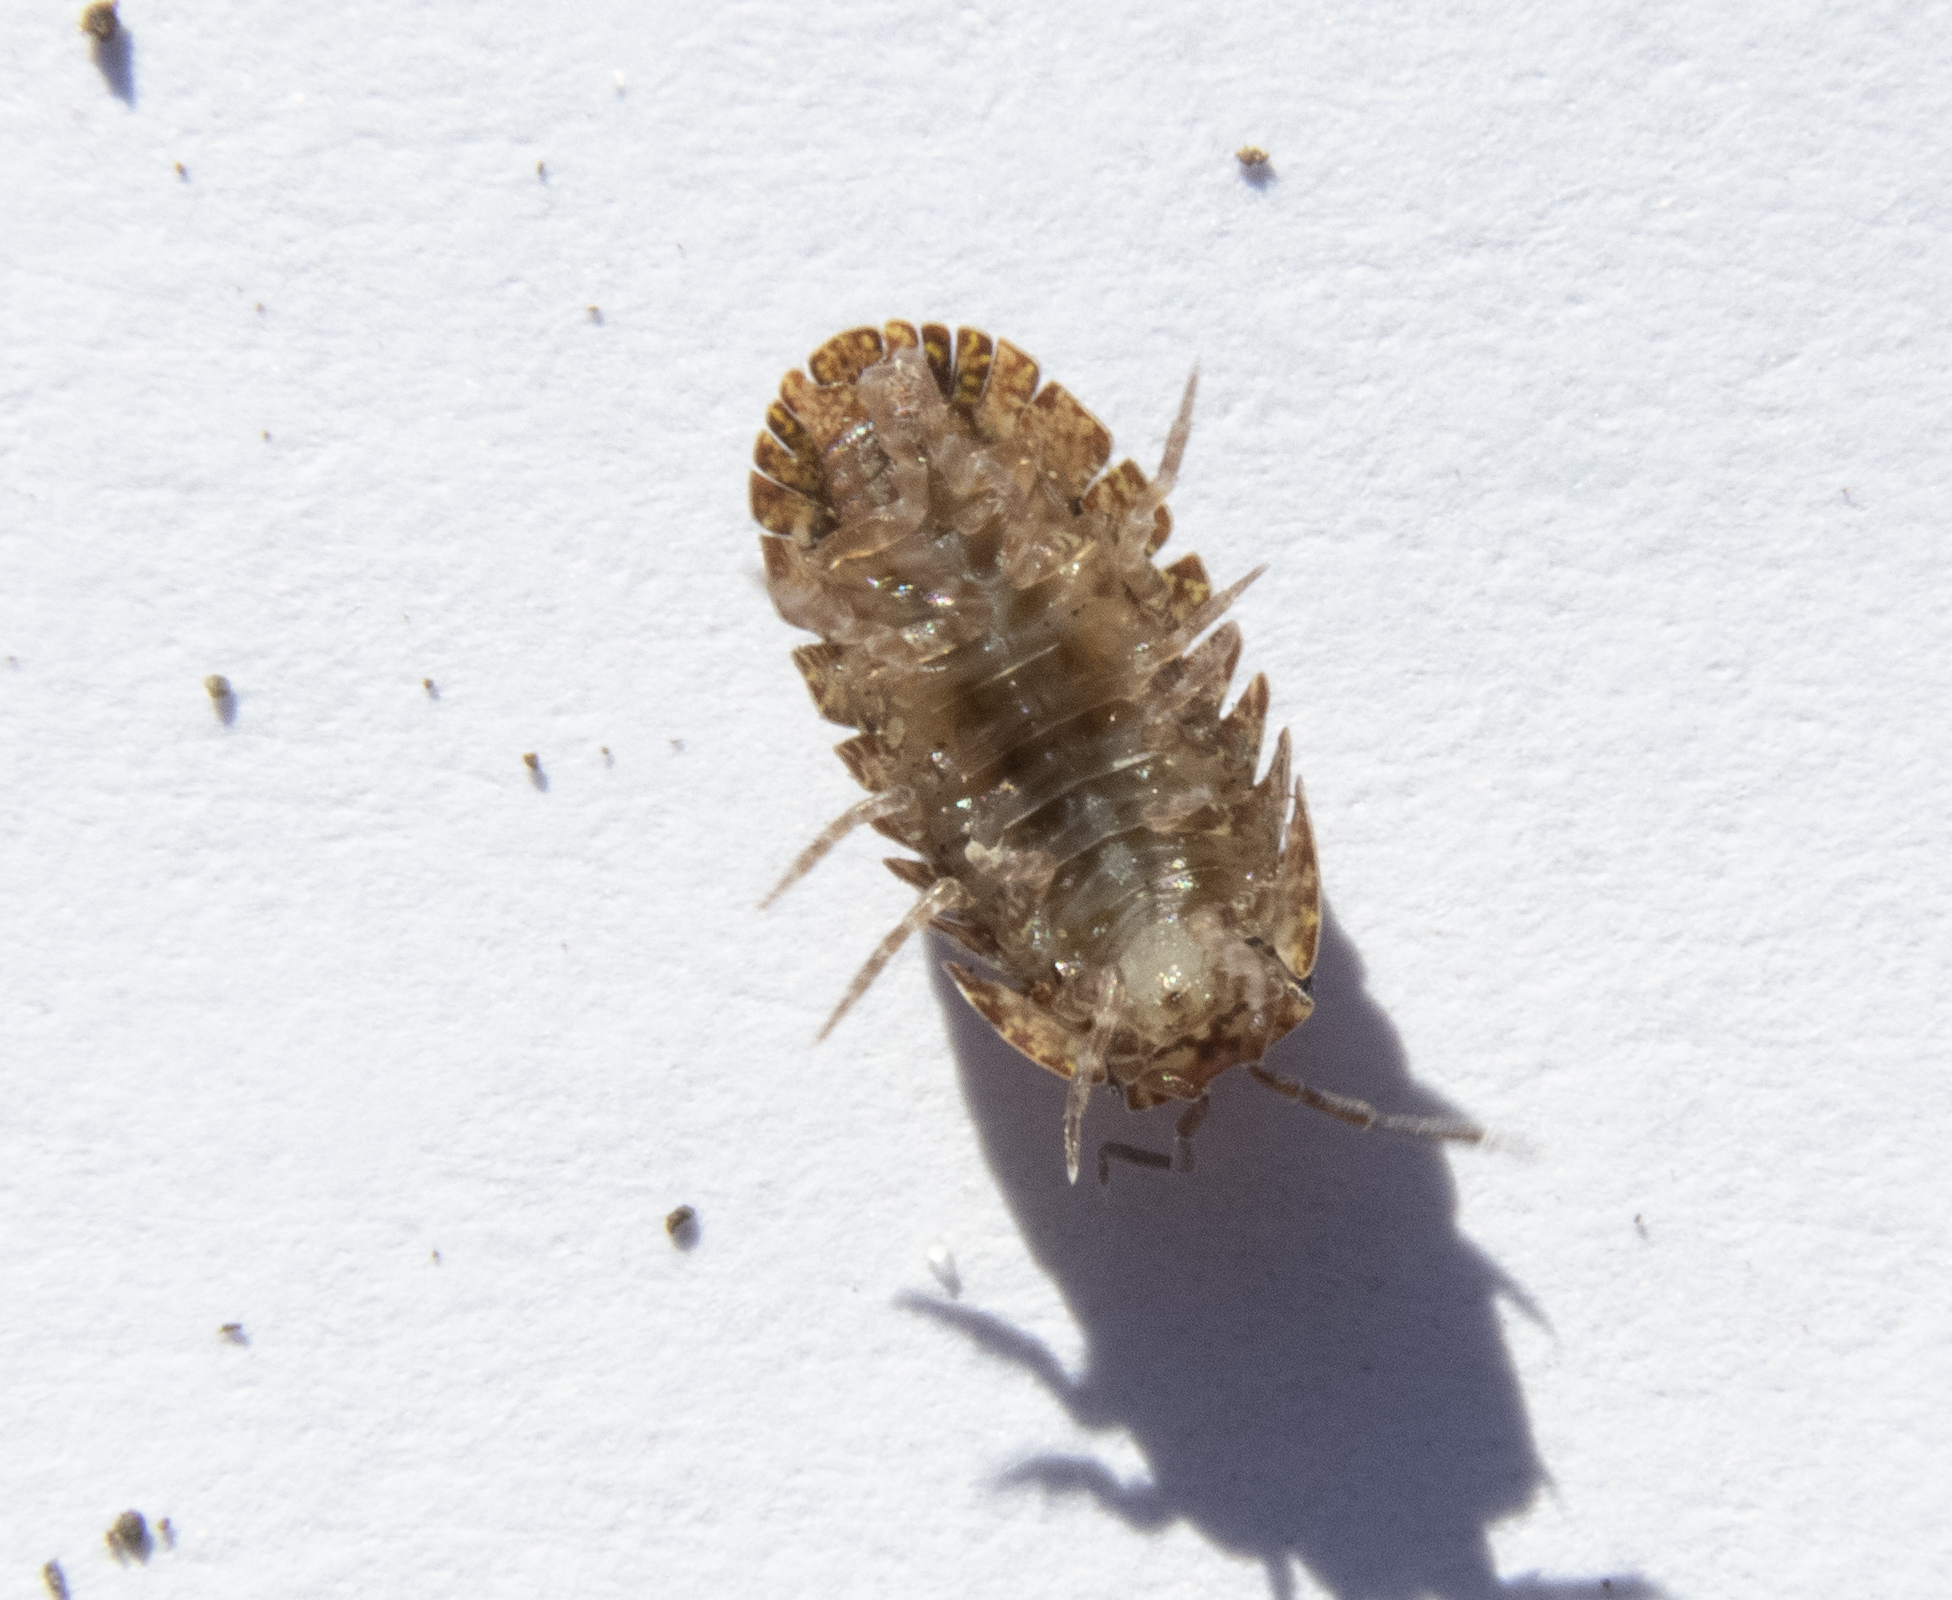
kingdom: Animalia
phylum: Arthropoda
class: Malacostraca
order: Isopoda
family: Armadillidae
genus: Cubaris
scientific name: Cubaris tarangensis
